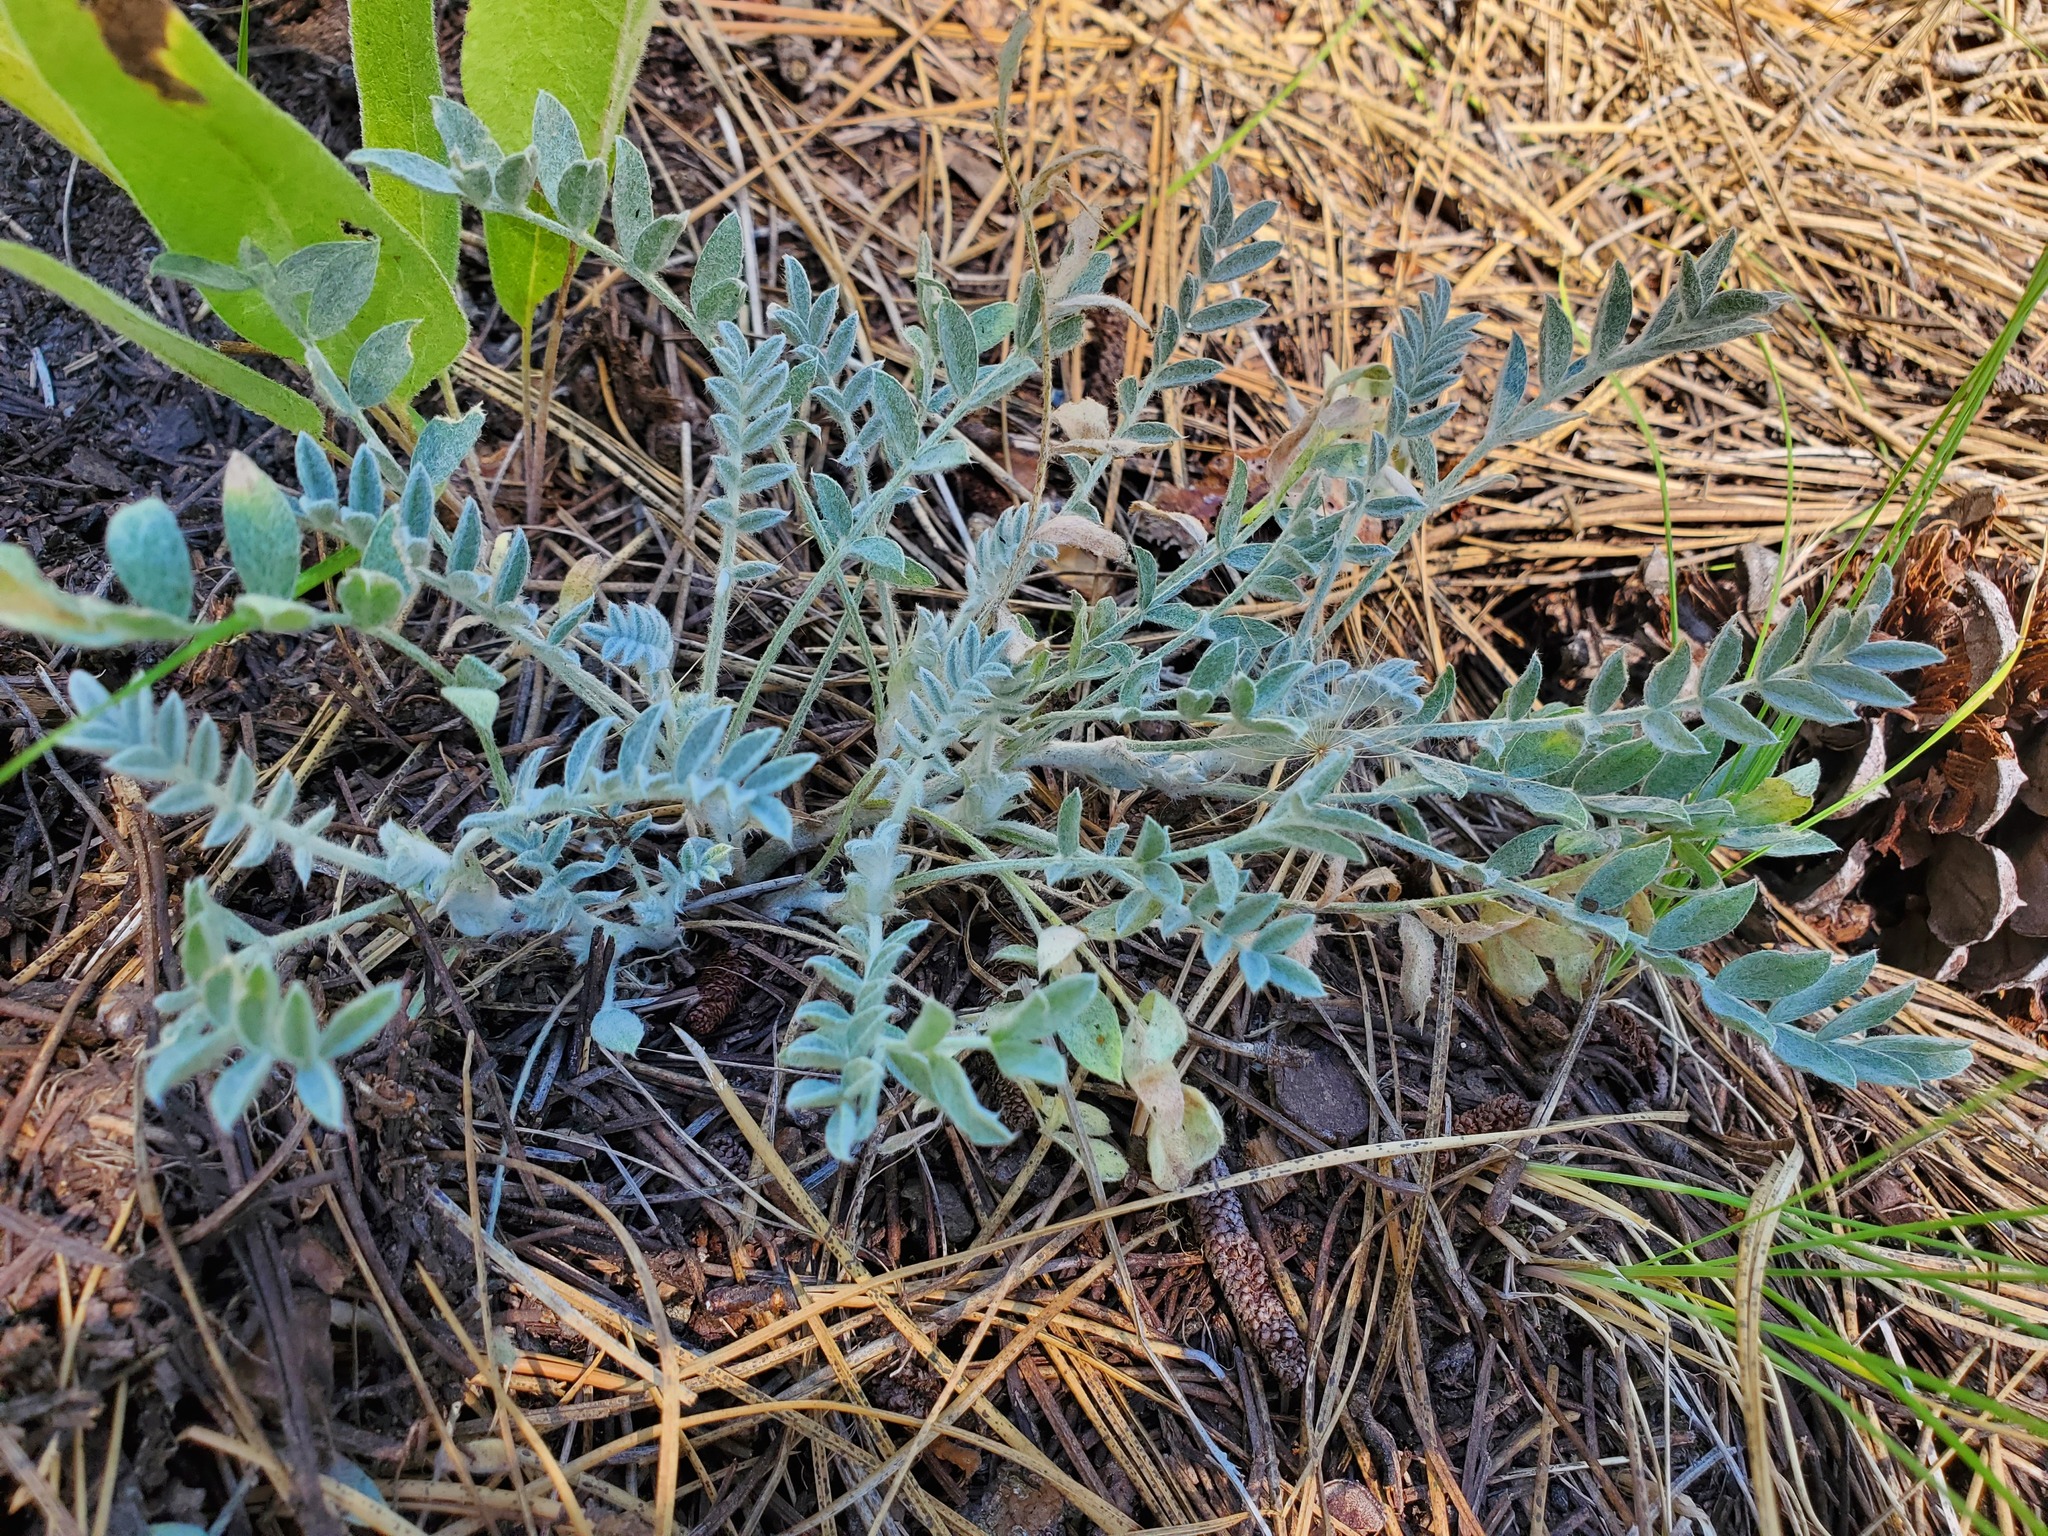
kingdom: Plantae
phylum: Tracheophyta
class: Magnoliopsida
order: Fabales
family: Fabaceae
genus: Astragalus
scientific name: Astragalus purshii
